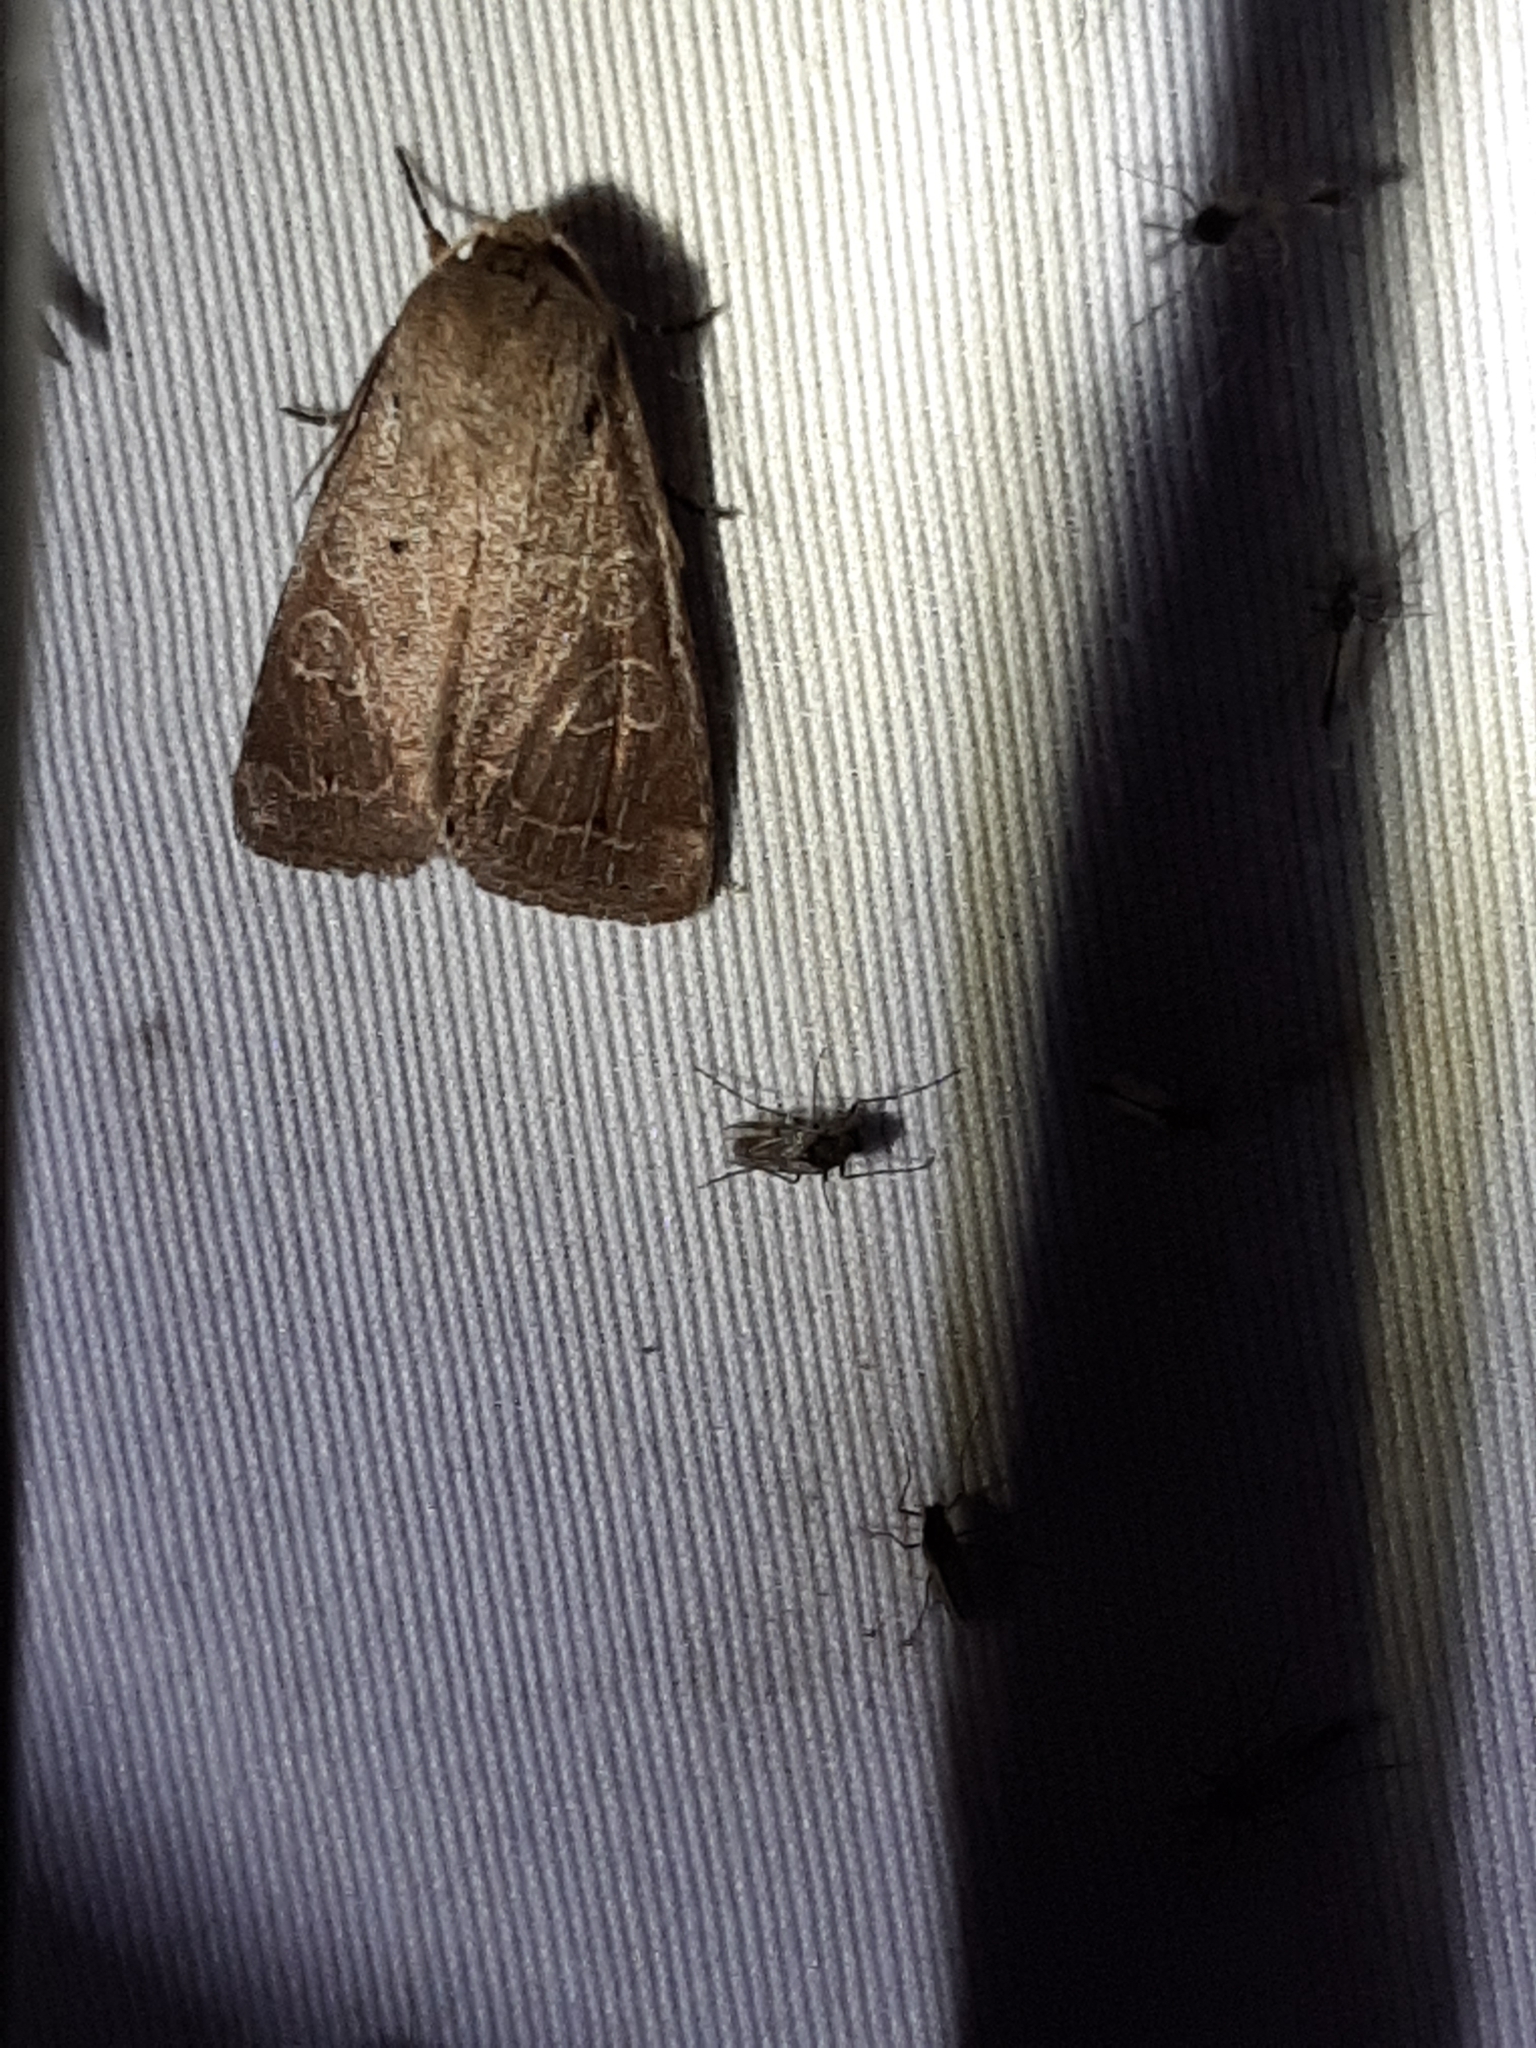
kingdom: Animalia
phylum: Arthropoda
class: Insecta
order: Lepidoptera
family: Noctuidae
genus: Kocakina
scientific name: Kocakina fidelis
